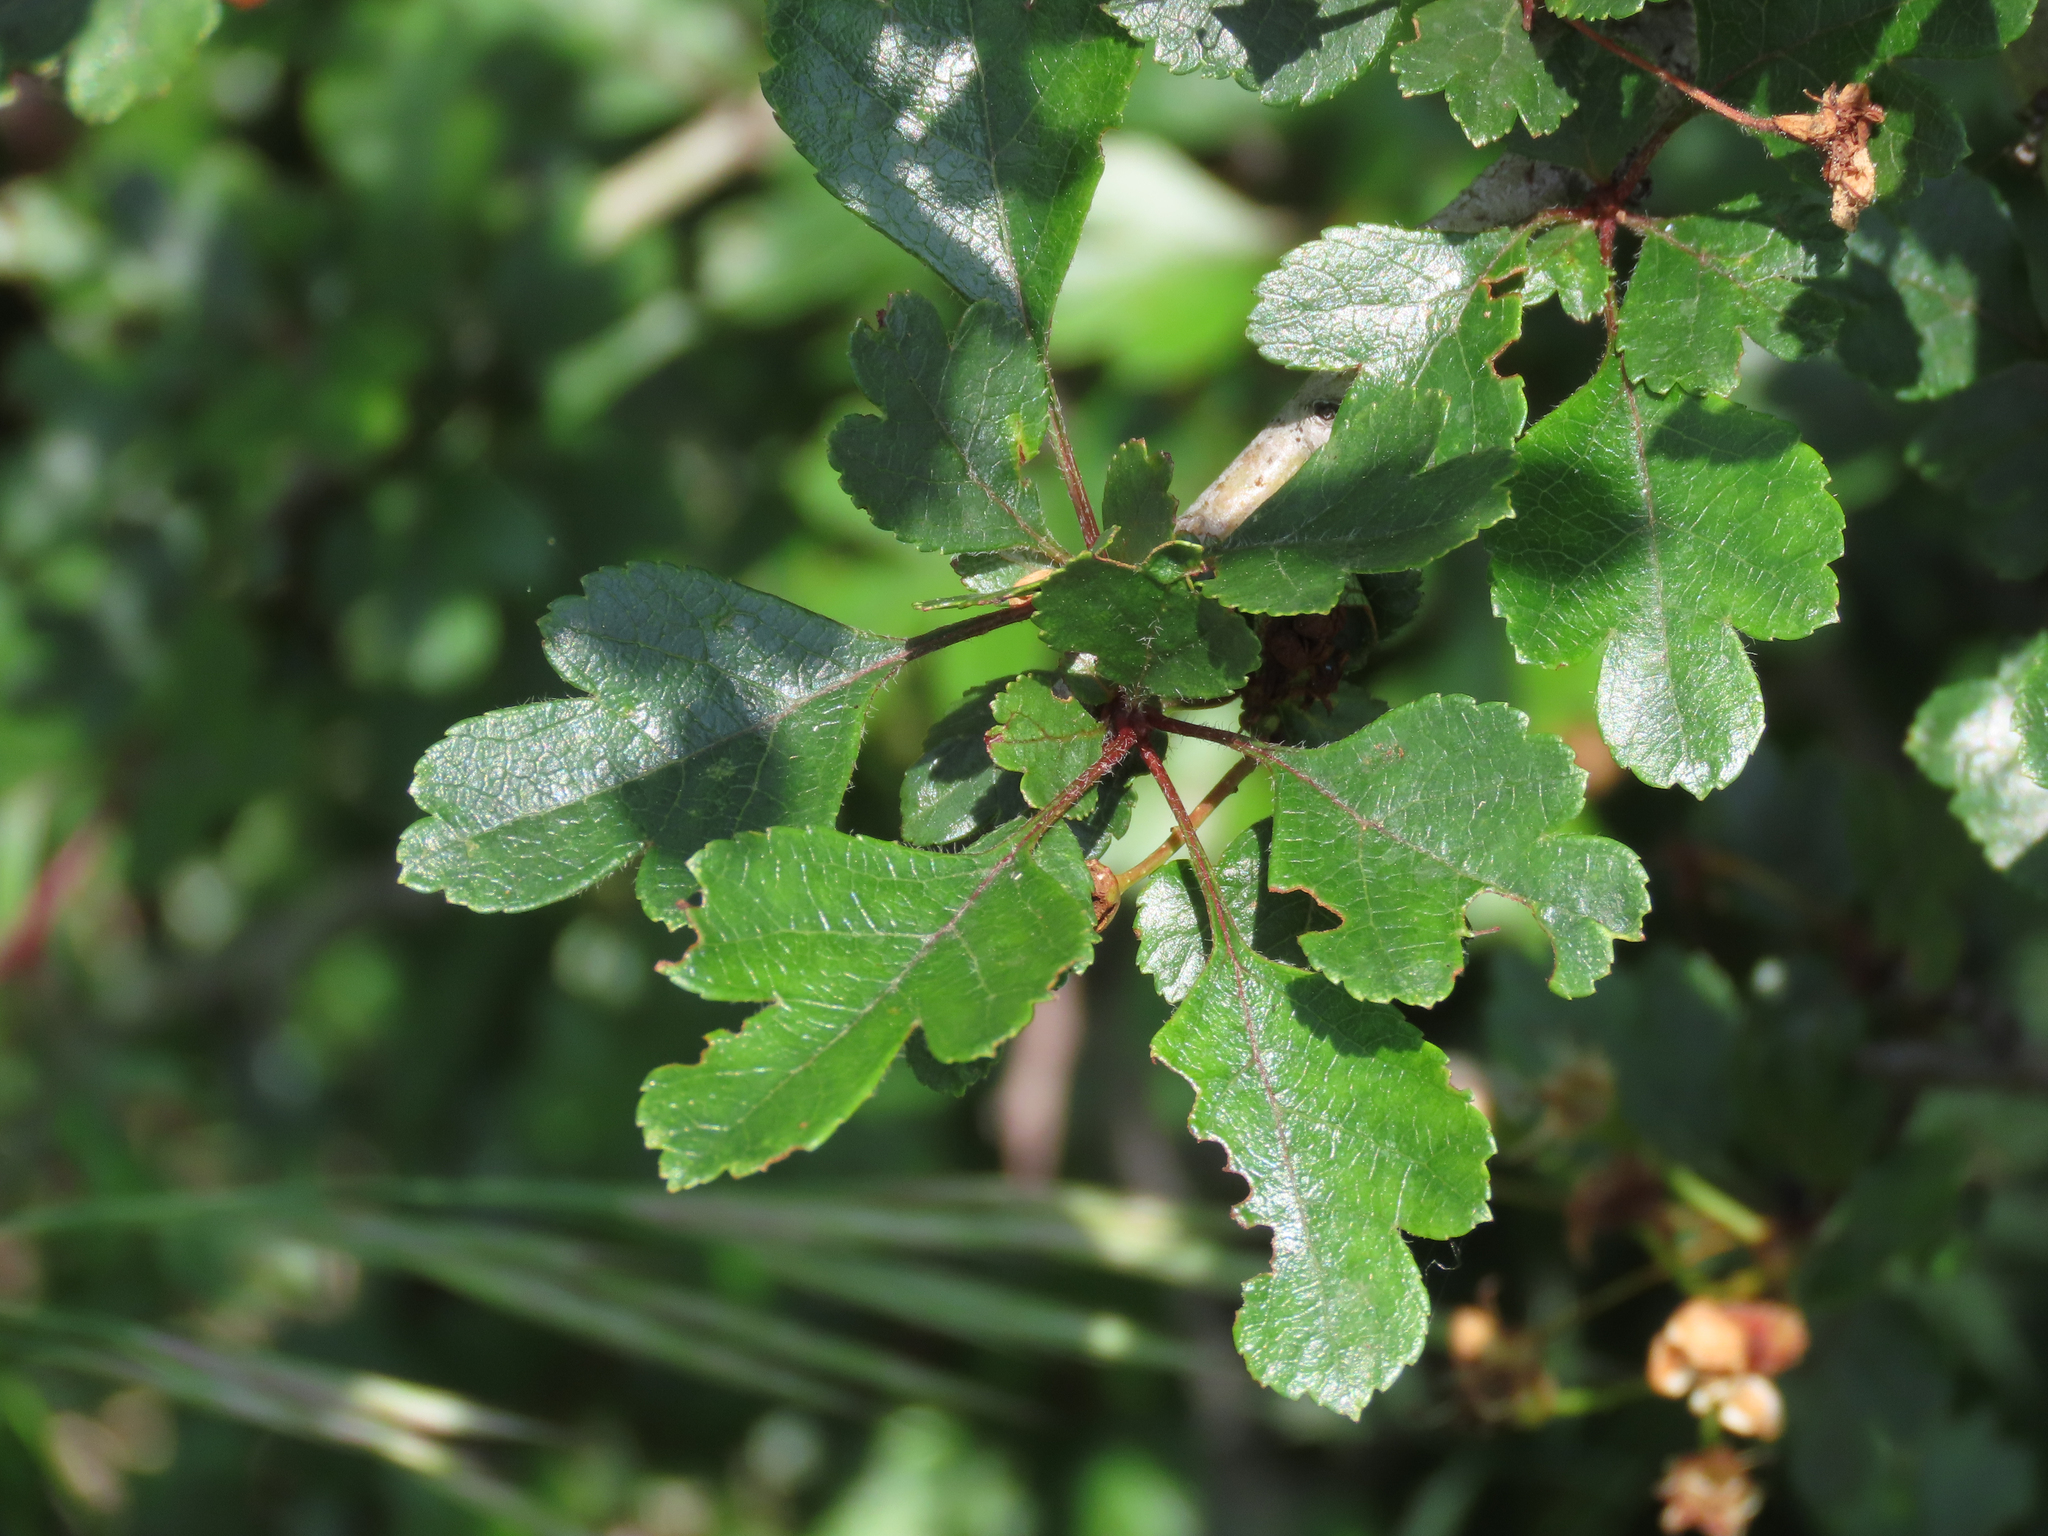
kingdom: Plantae
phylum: Tracheophyta
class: Magnoliopsida
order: Rosales
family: Rosaceae
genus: Crataegus
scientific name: Crataegus laevigata
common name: Midland hawthorn
